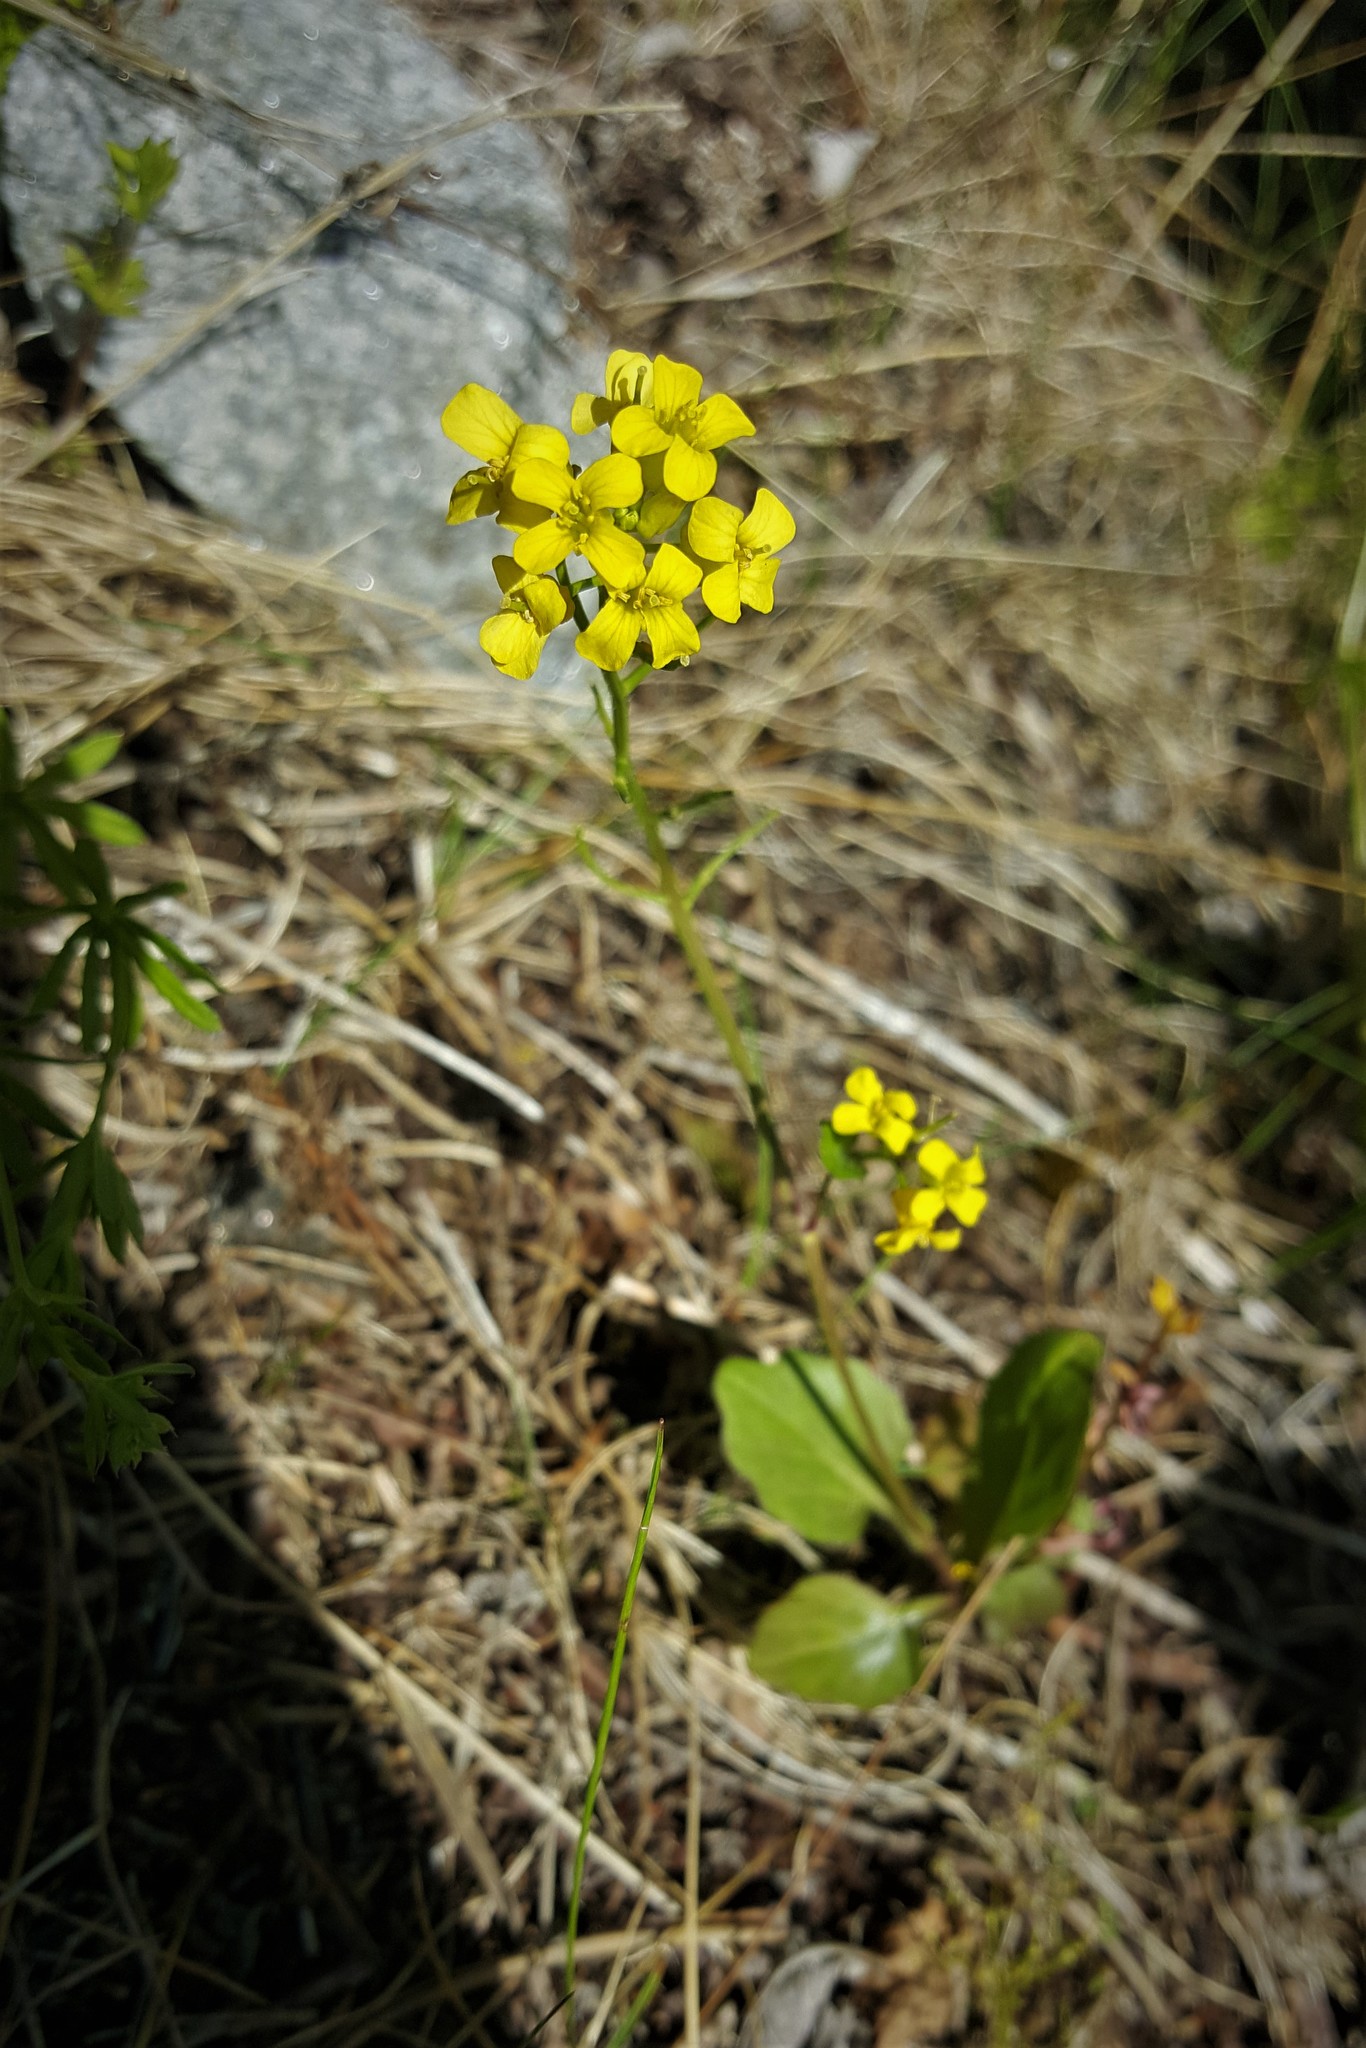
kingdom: Plantae
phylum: Tracheophyta
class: Magnoliopsida
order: Brassicales
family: Brassicaceae
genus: Barbarea
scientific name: Barbarea vulgaris
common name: Cressy-greens
